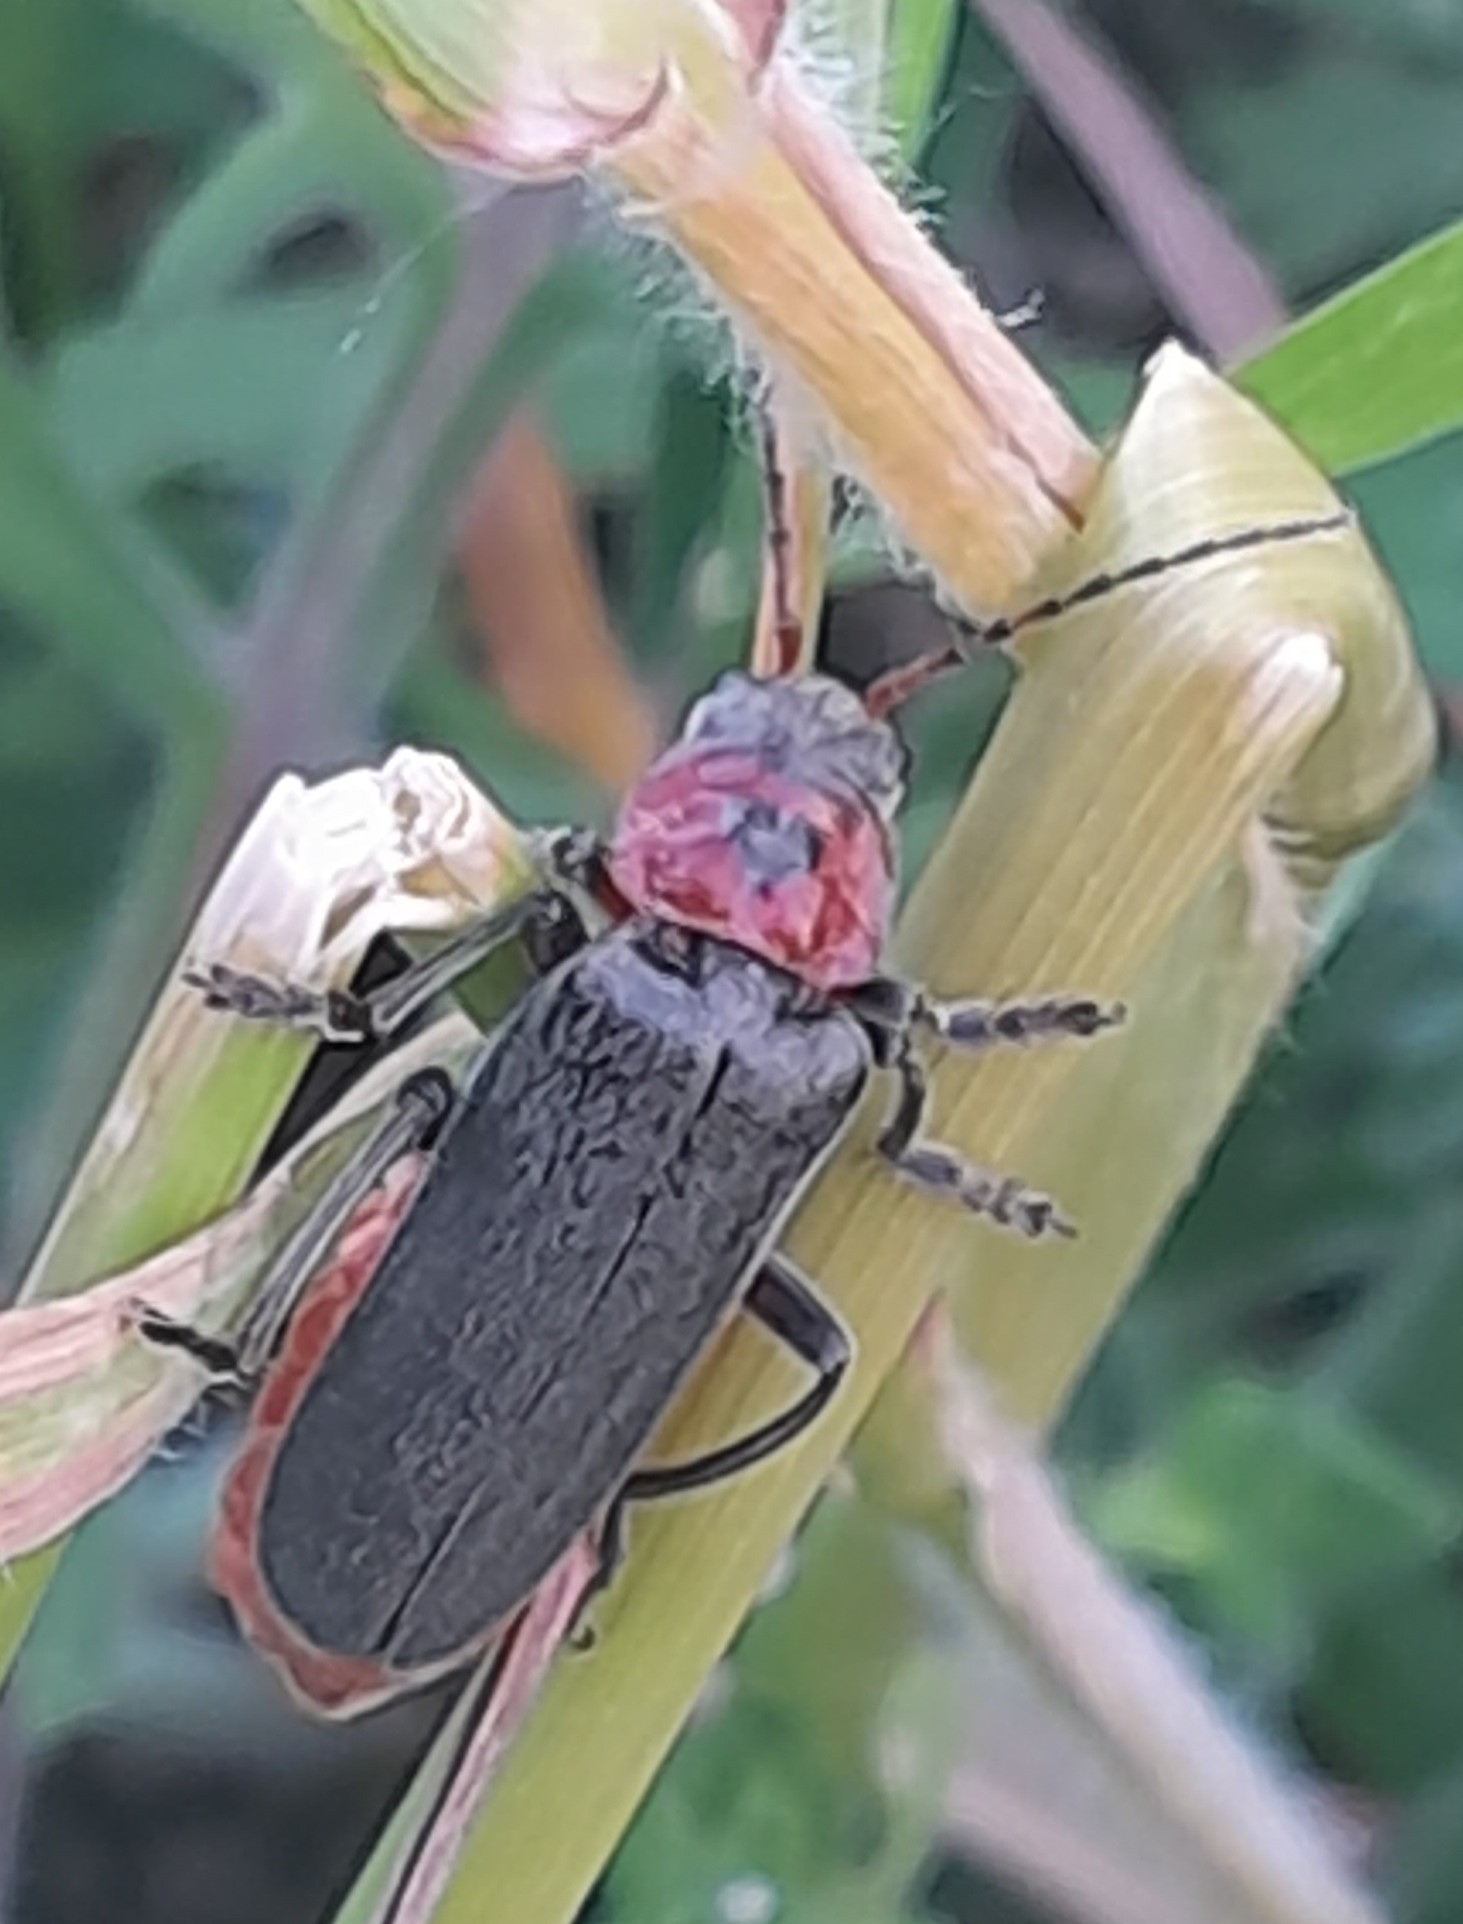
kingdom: Animalia
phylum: Arthropoda
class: Insecta
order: Coleoptera
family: Cantharidae
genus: Cantharis
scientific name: Cantharis rustica
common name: Soldier beetle
